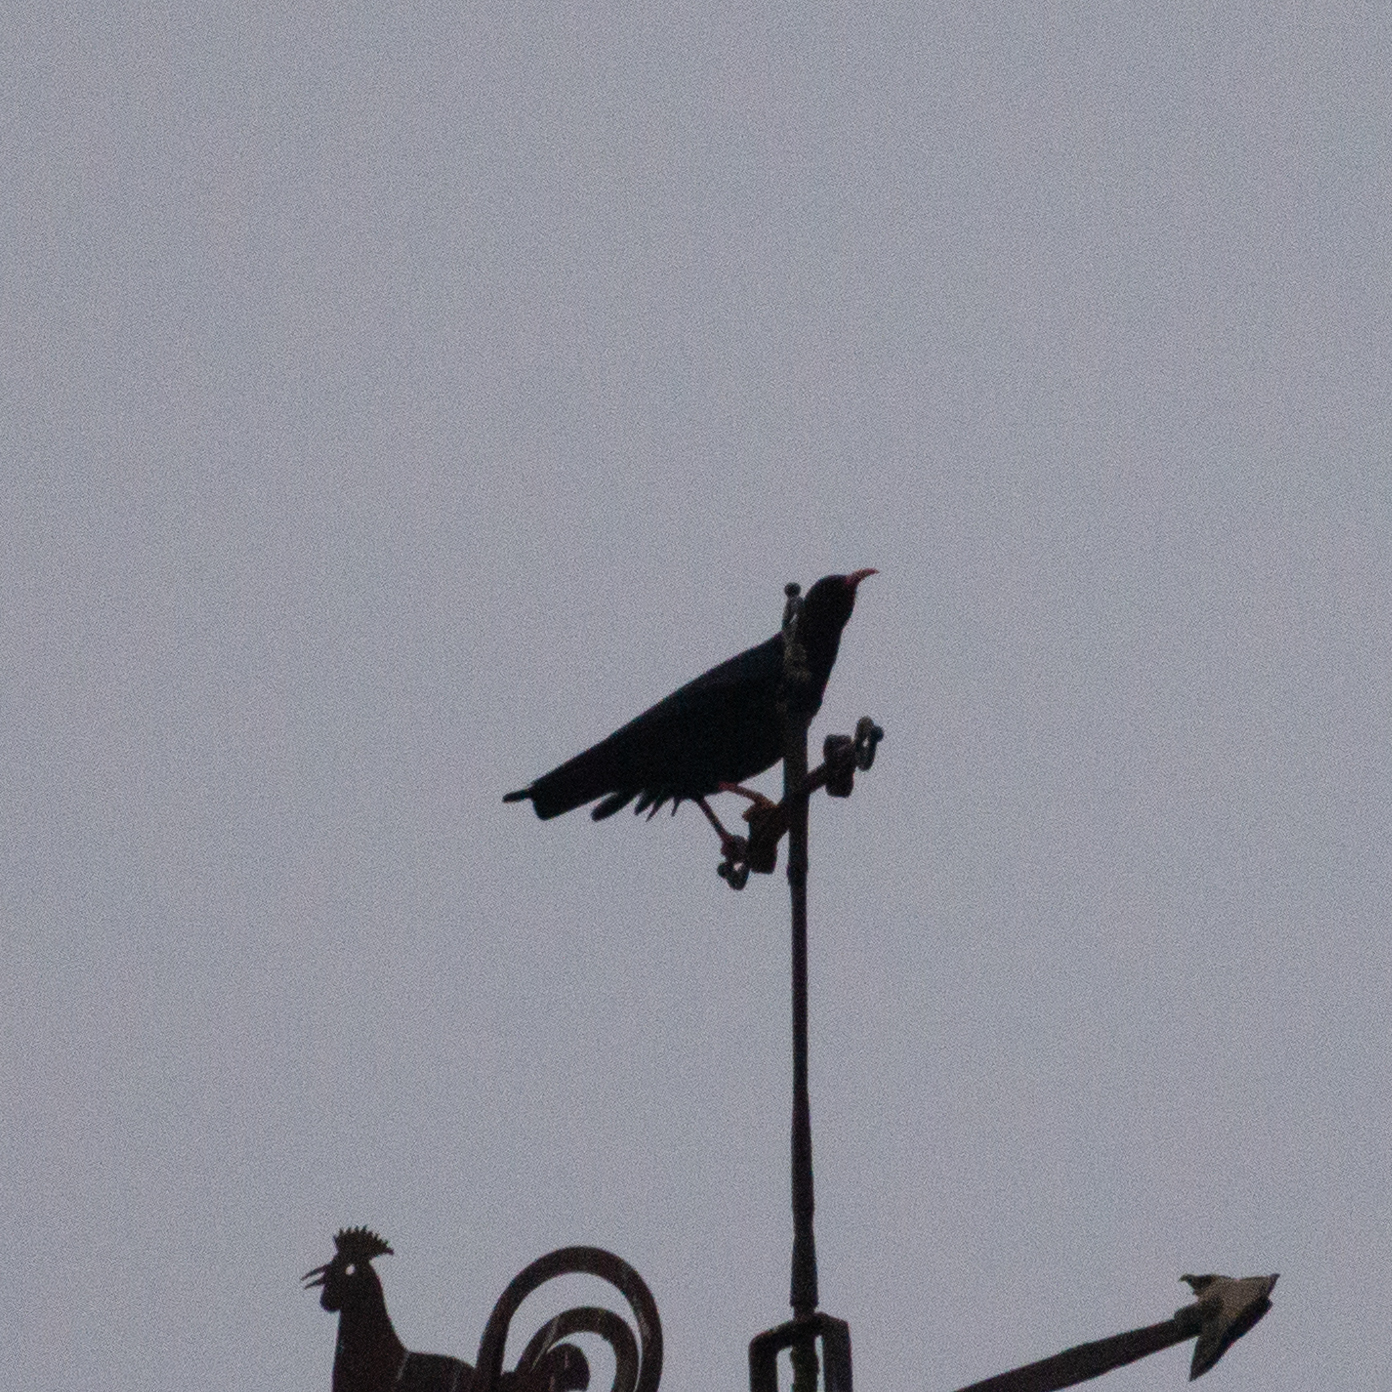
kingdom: Animalia
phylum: Chordata
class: Aves
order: Passeriformes
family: Corvidae
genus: Pyrrhocorax
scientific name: Pyrrhocorax pyrrhocorax
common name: Red-billed chough
